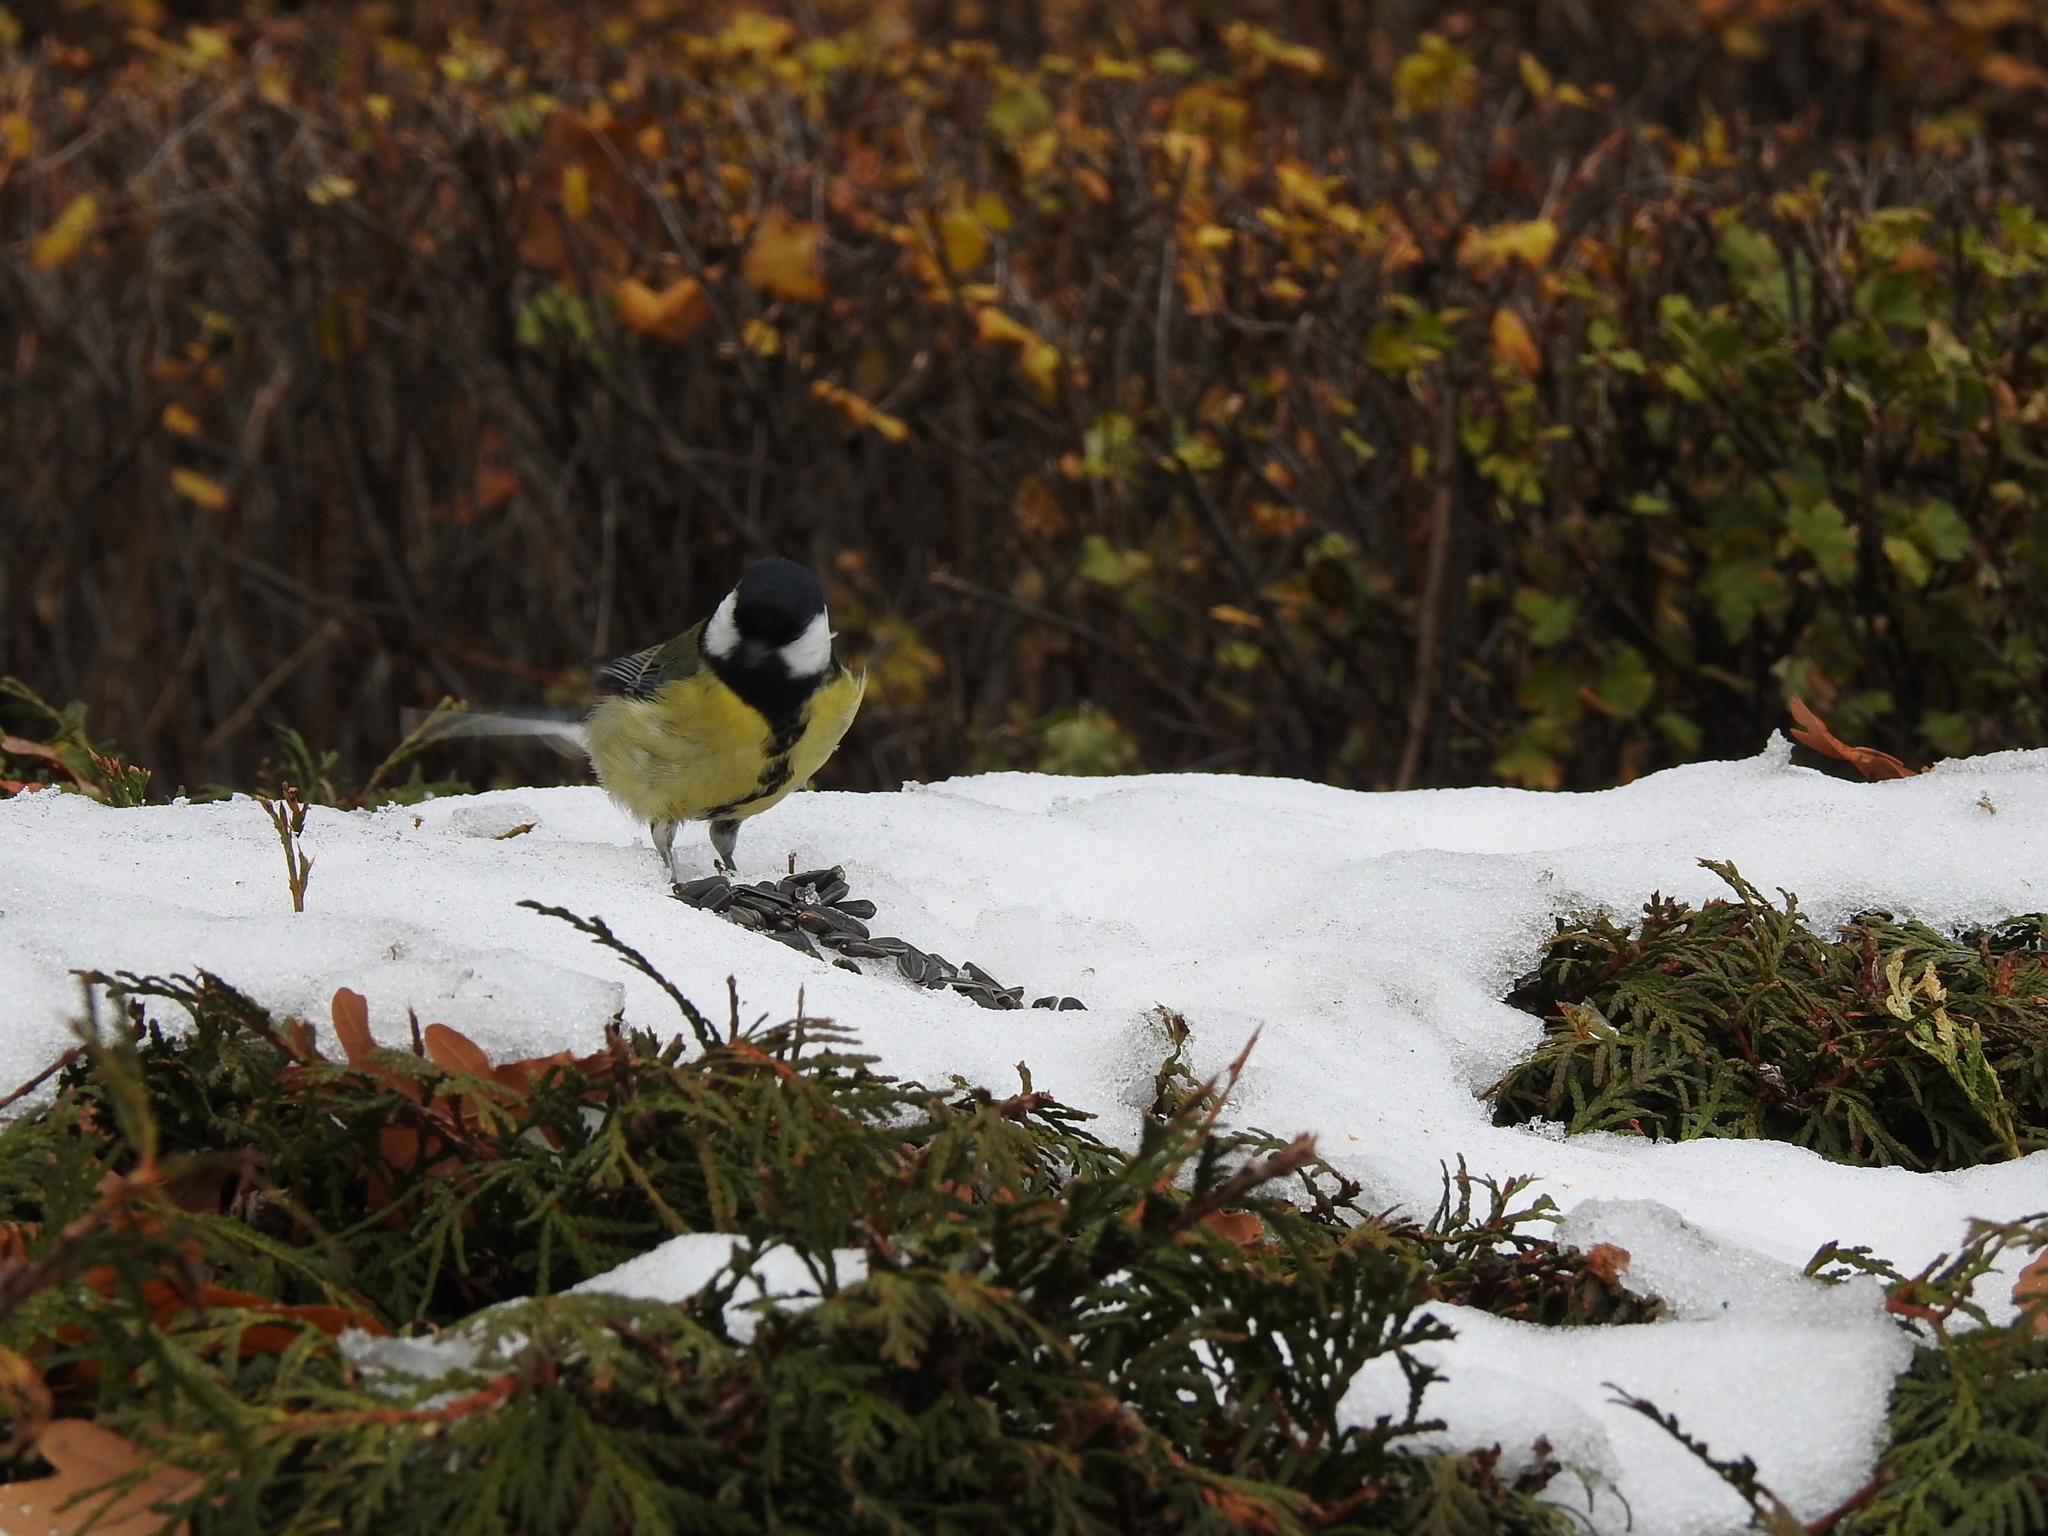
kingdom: Animalia
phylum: Chordata
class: Aves
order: Passeriformes
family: Paridae
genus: Parus
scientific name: Parus major
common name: Great tit
